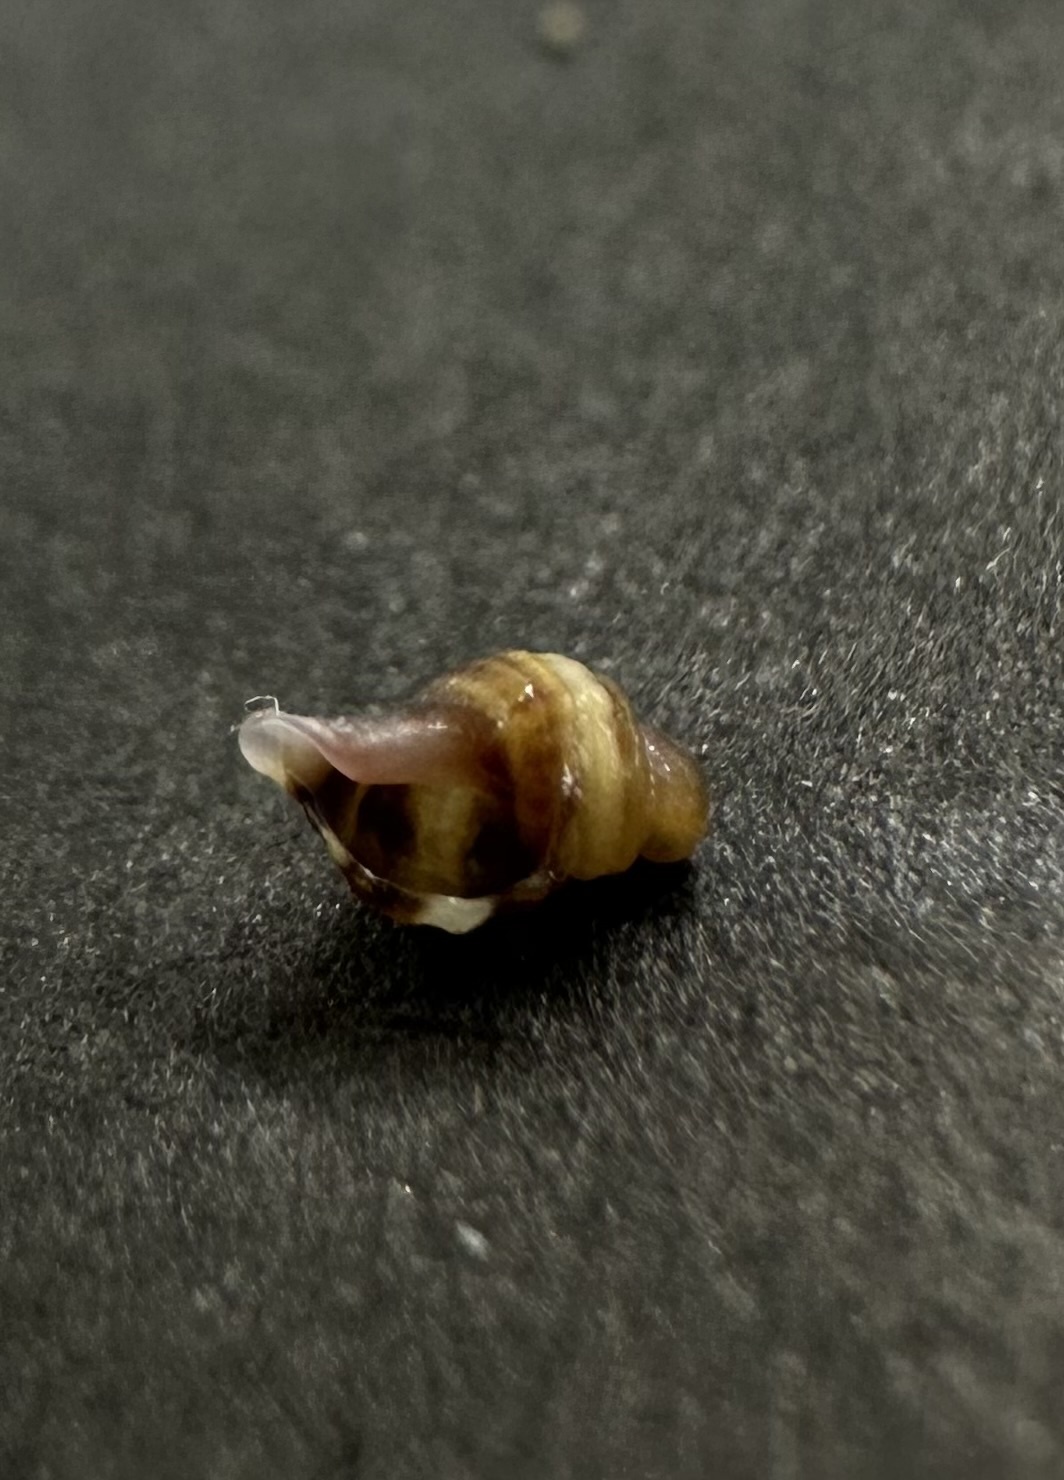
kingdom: Animalia
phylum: Mollusca
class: Gastropoda
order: Neogastropoda
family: Muricidae
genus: Nucella
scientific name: Nucella lapillus
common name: Dog whelk
